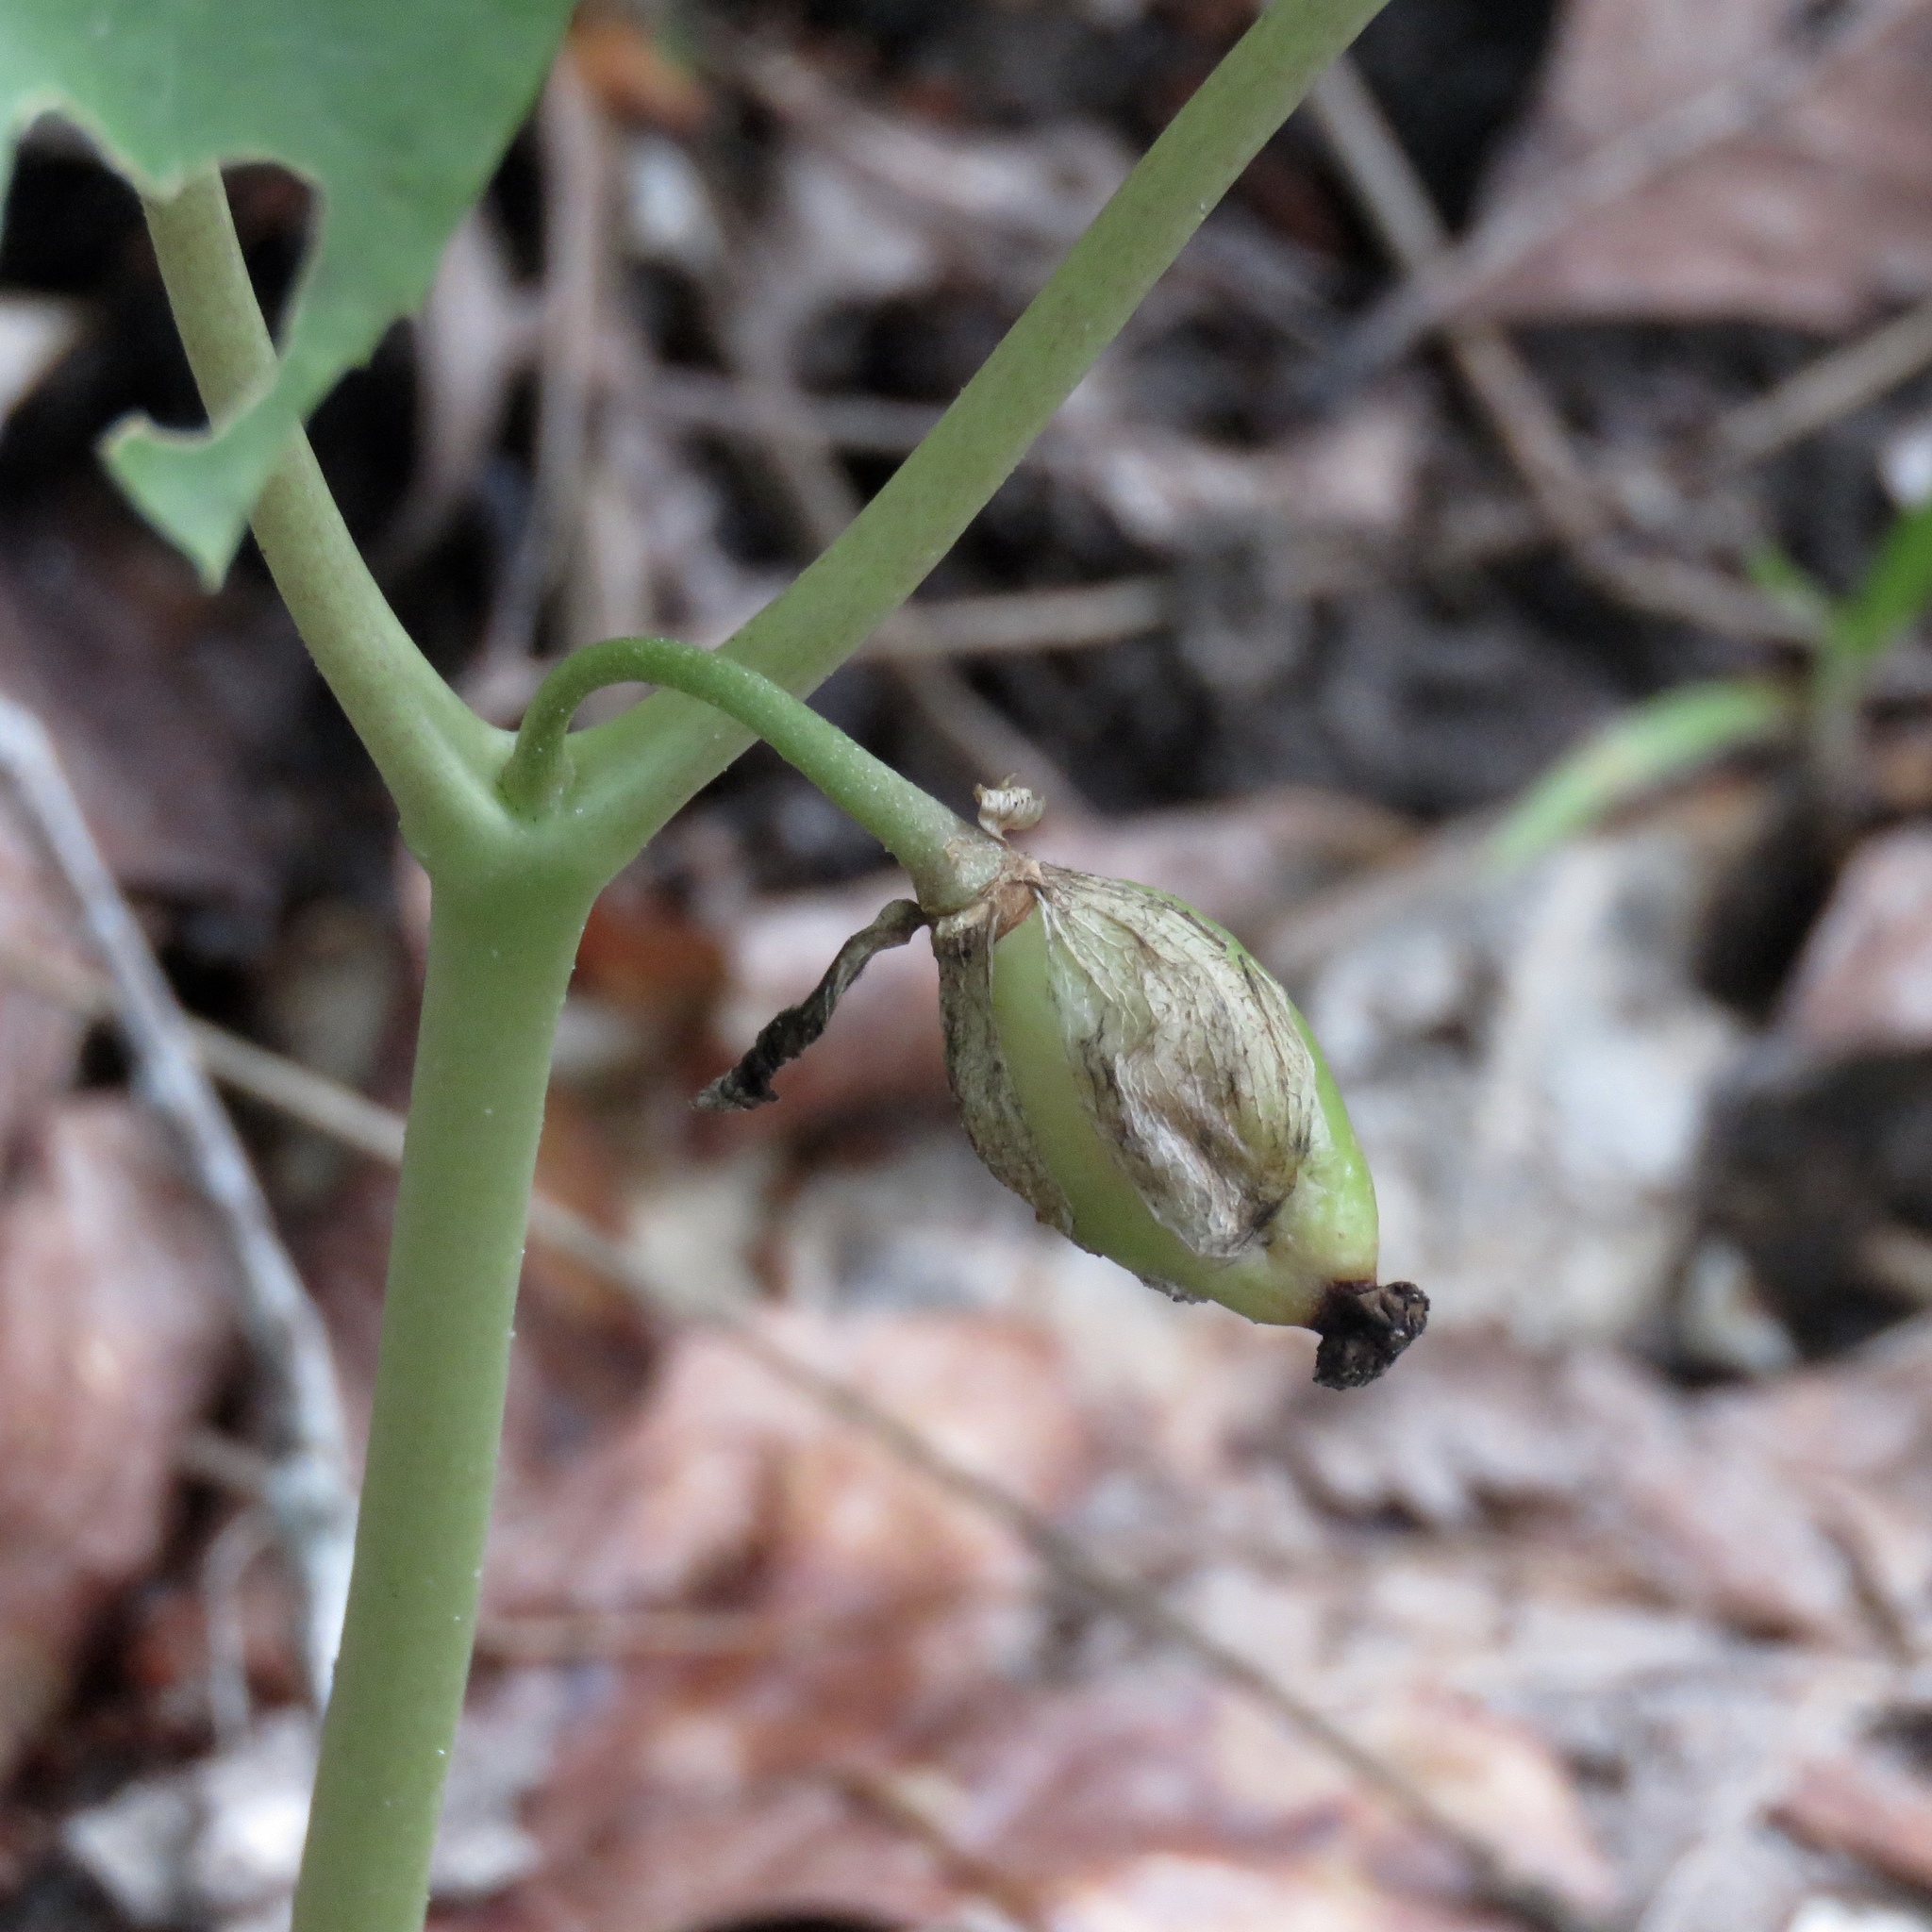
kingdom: Plantae
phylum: Tracheophyta
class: Magnoliopsida
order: Ranunculales
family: Berberidaceae
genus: Podophyllum
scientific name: Podophyllum peltatum
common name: Wild mandrake
